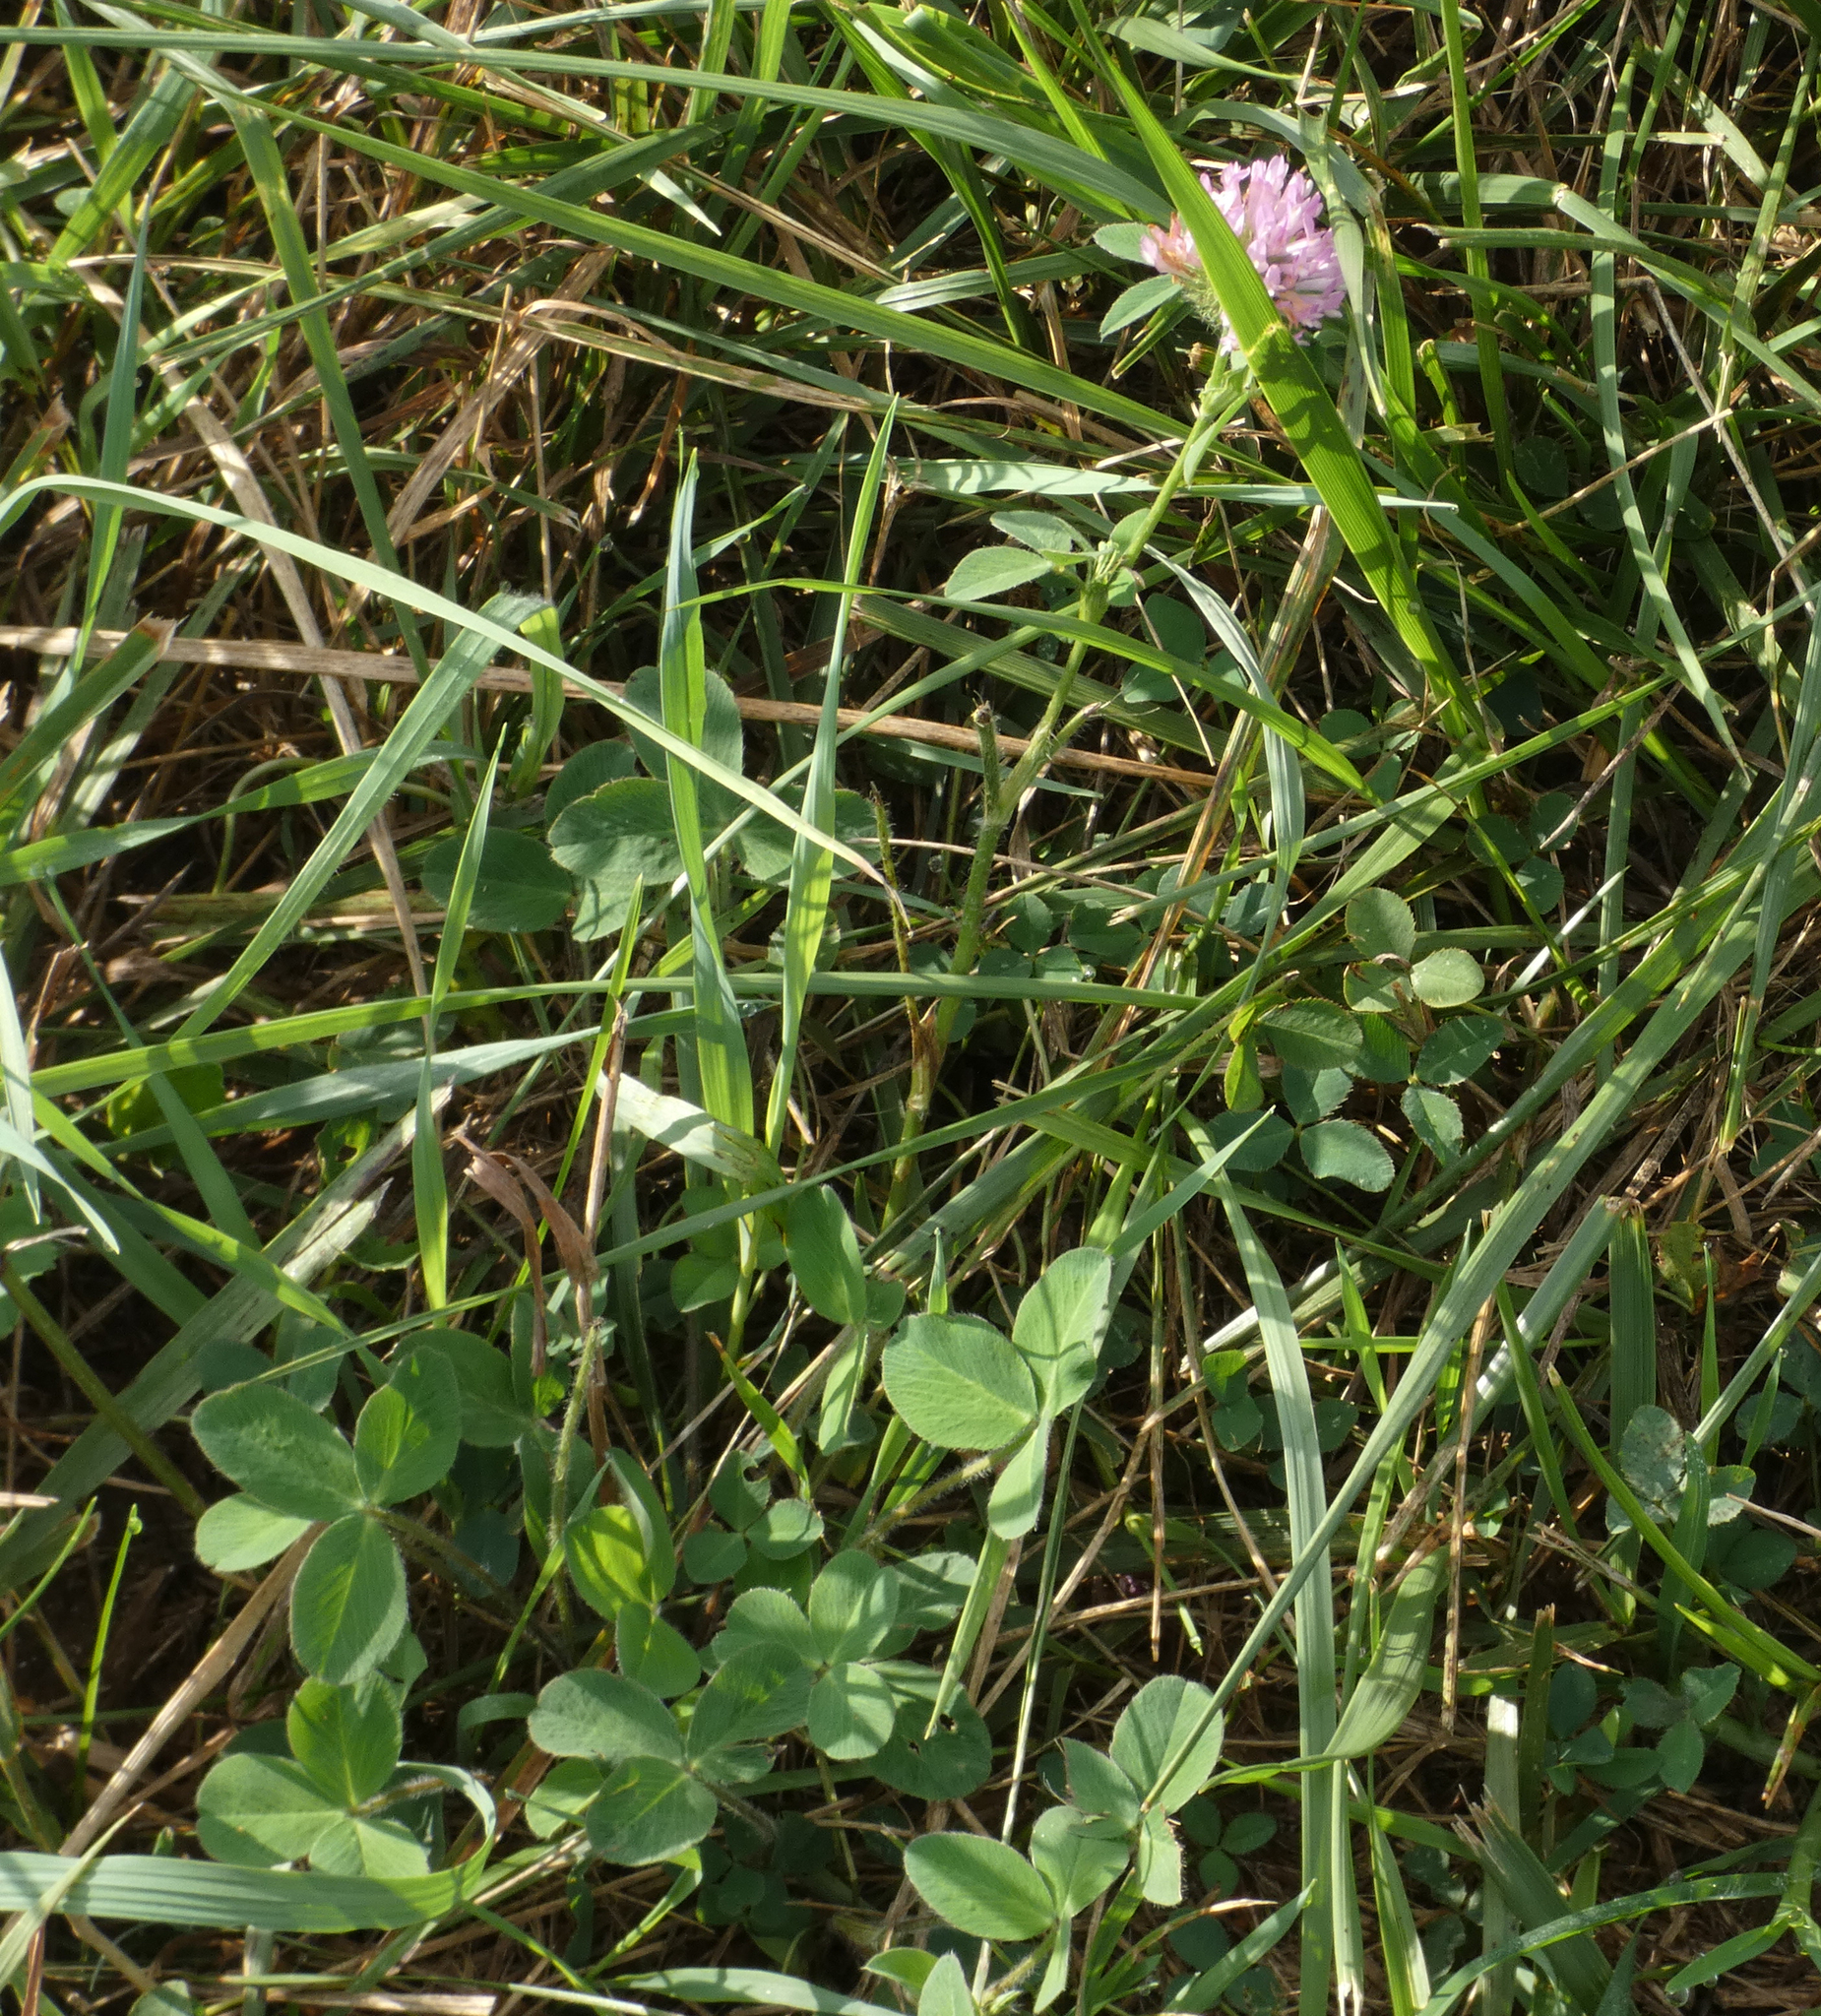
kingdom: Plantae
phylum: Tracheophyta
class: Magnoliopsida
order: Fabales
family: Fabaceae
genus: Trifolium
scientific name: Trifolium pratense
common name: Red clover
